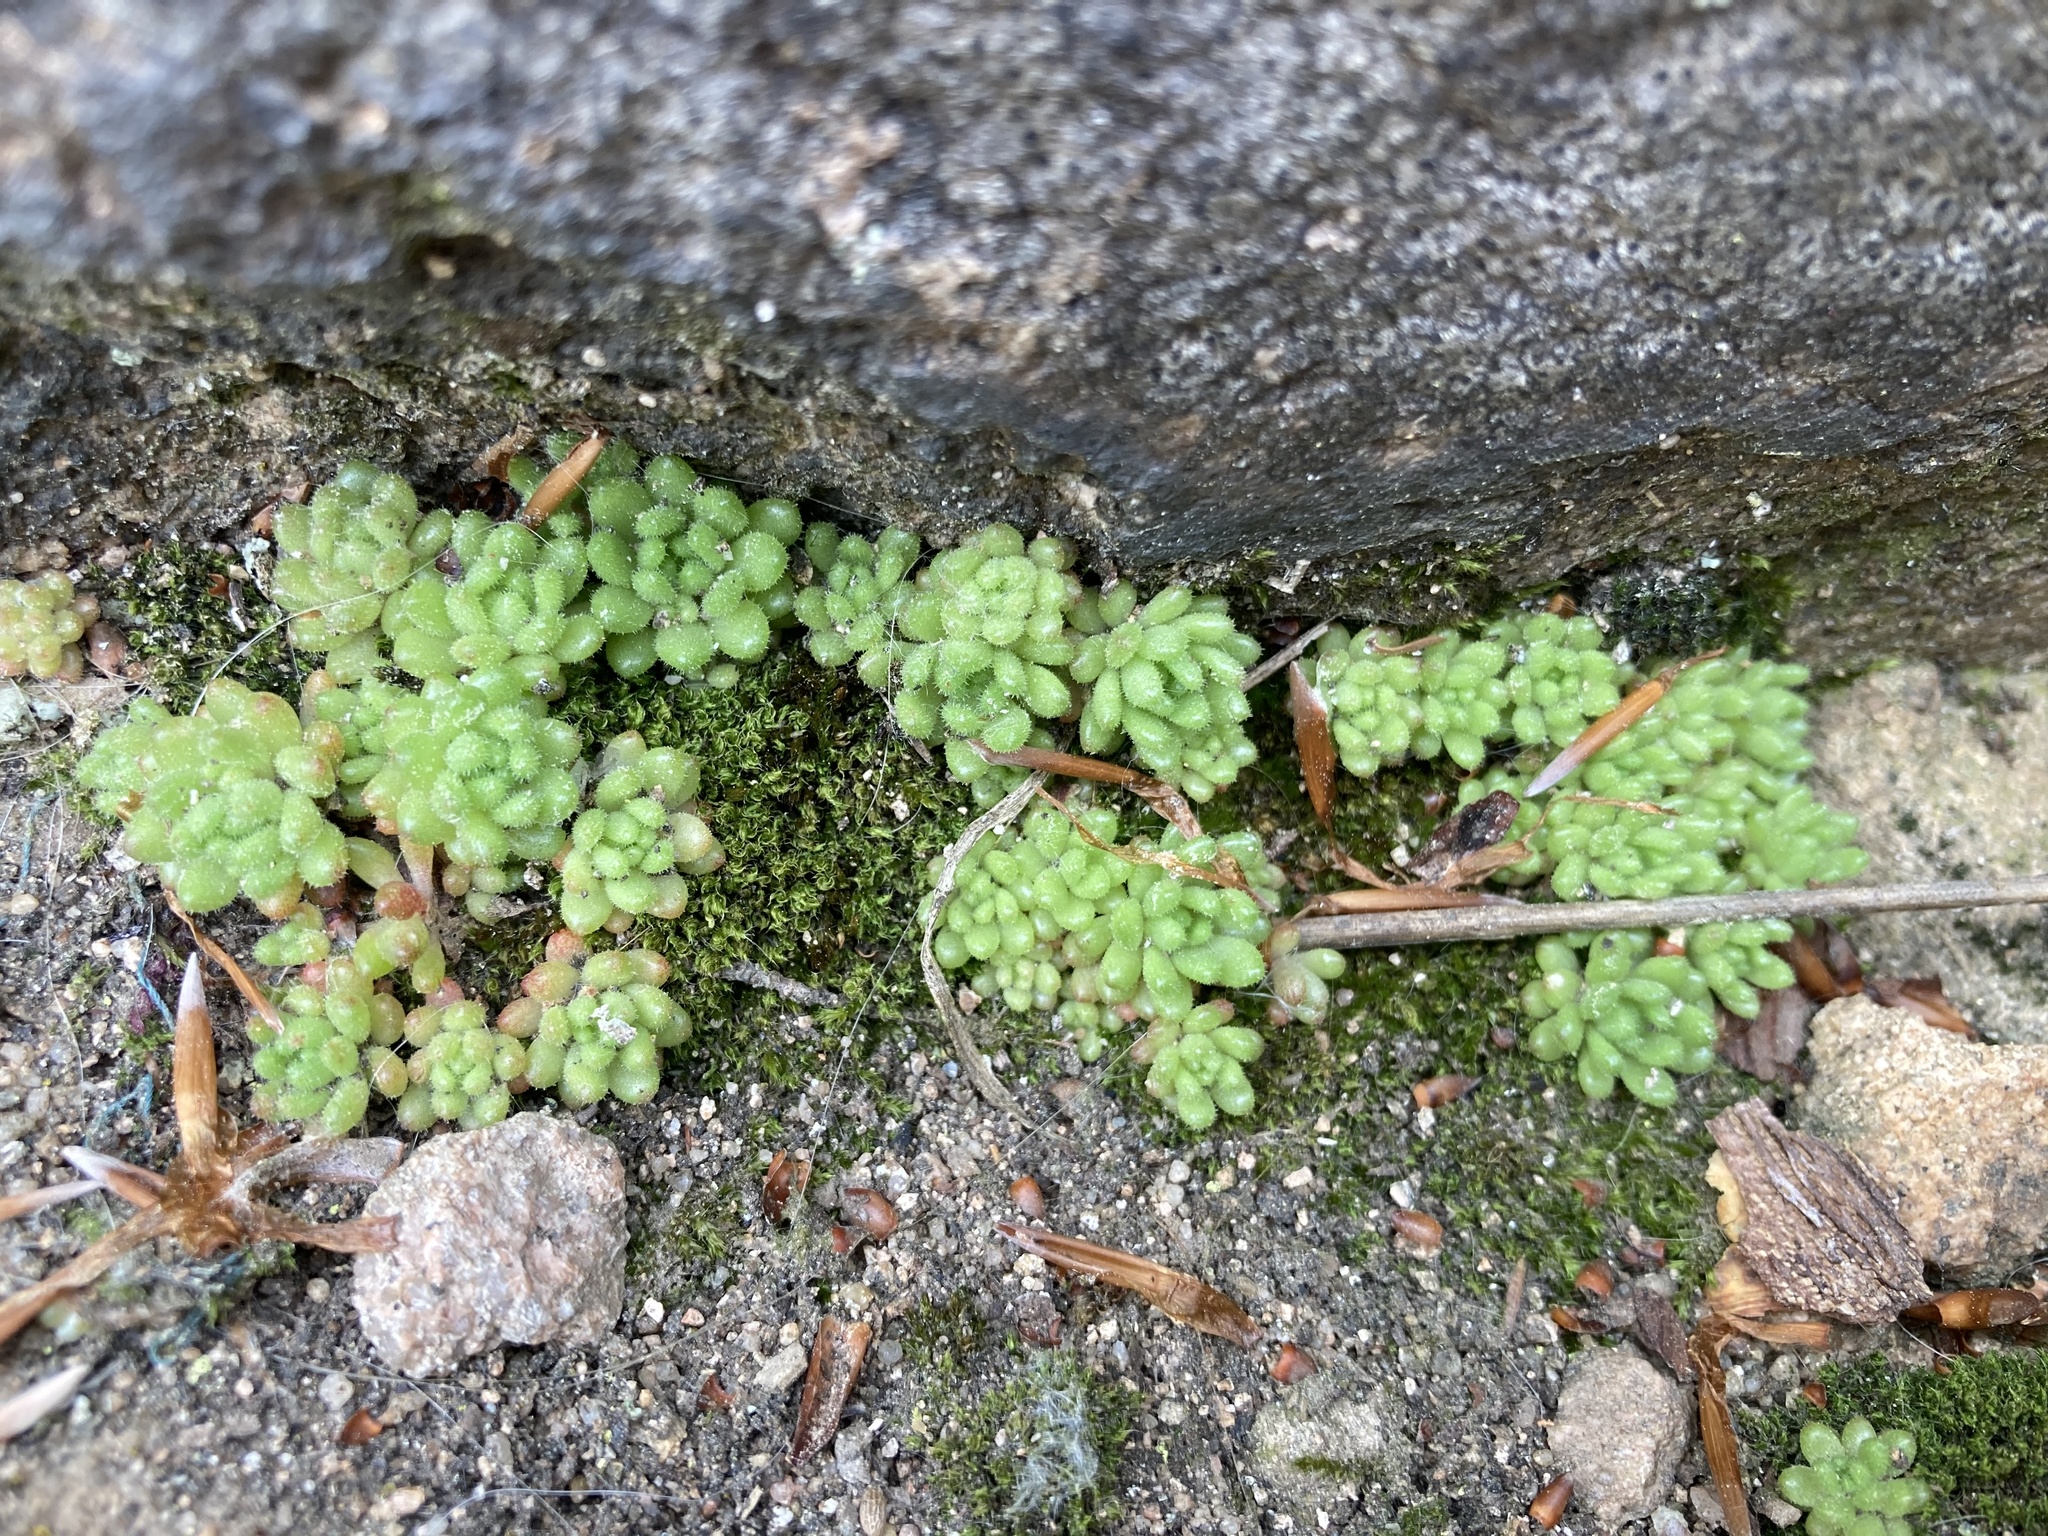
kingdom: Plantae
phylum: Tracheophyta
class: Magnoliopsida
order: Saxifragales
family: Crassulaceae
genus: Sedum
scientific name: Sedum hirsutum
